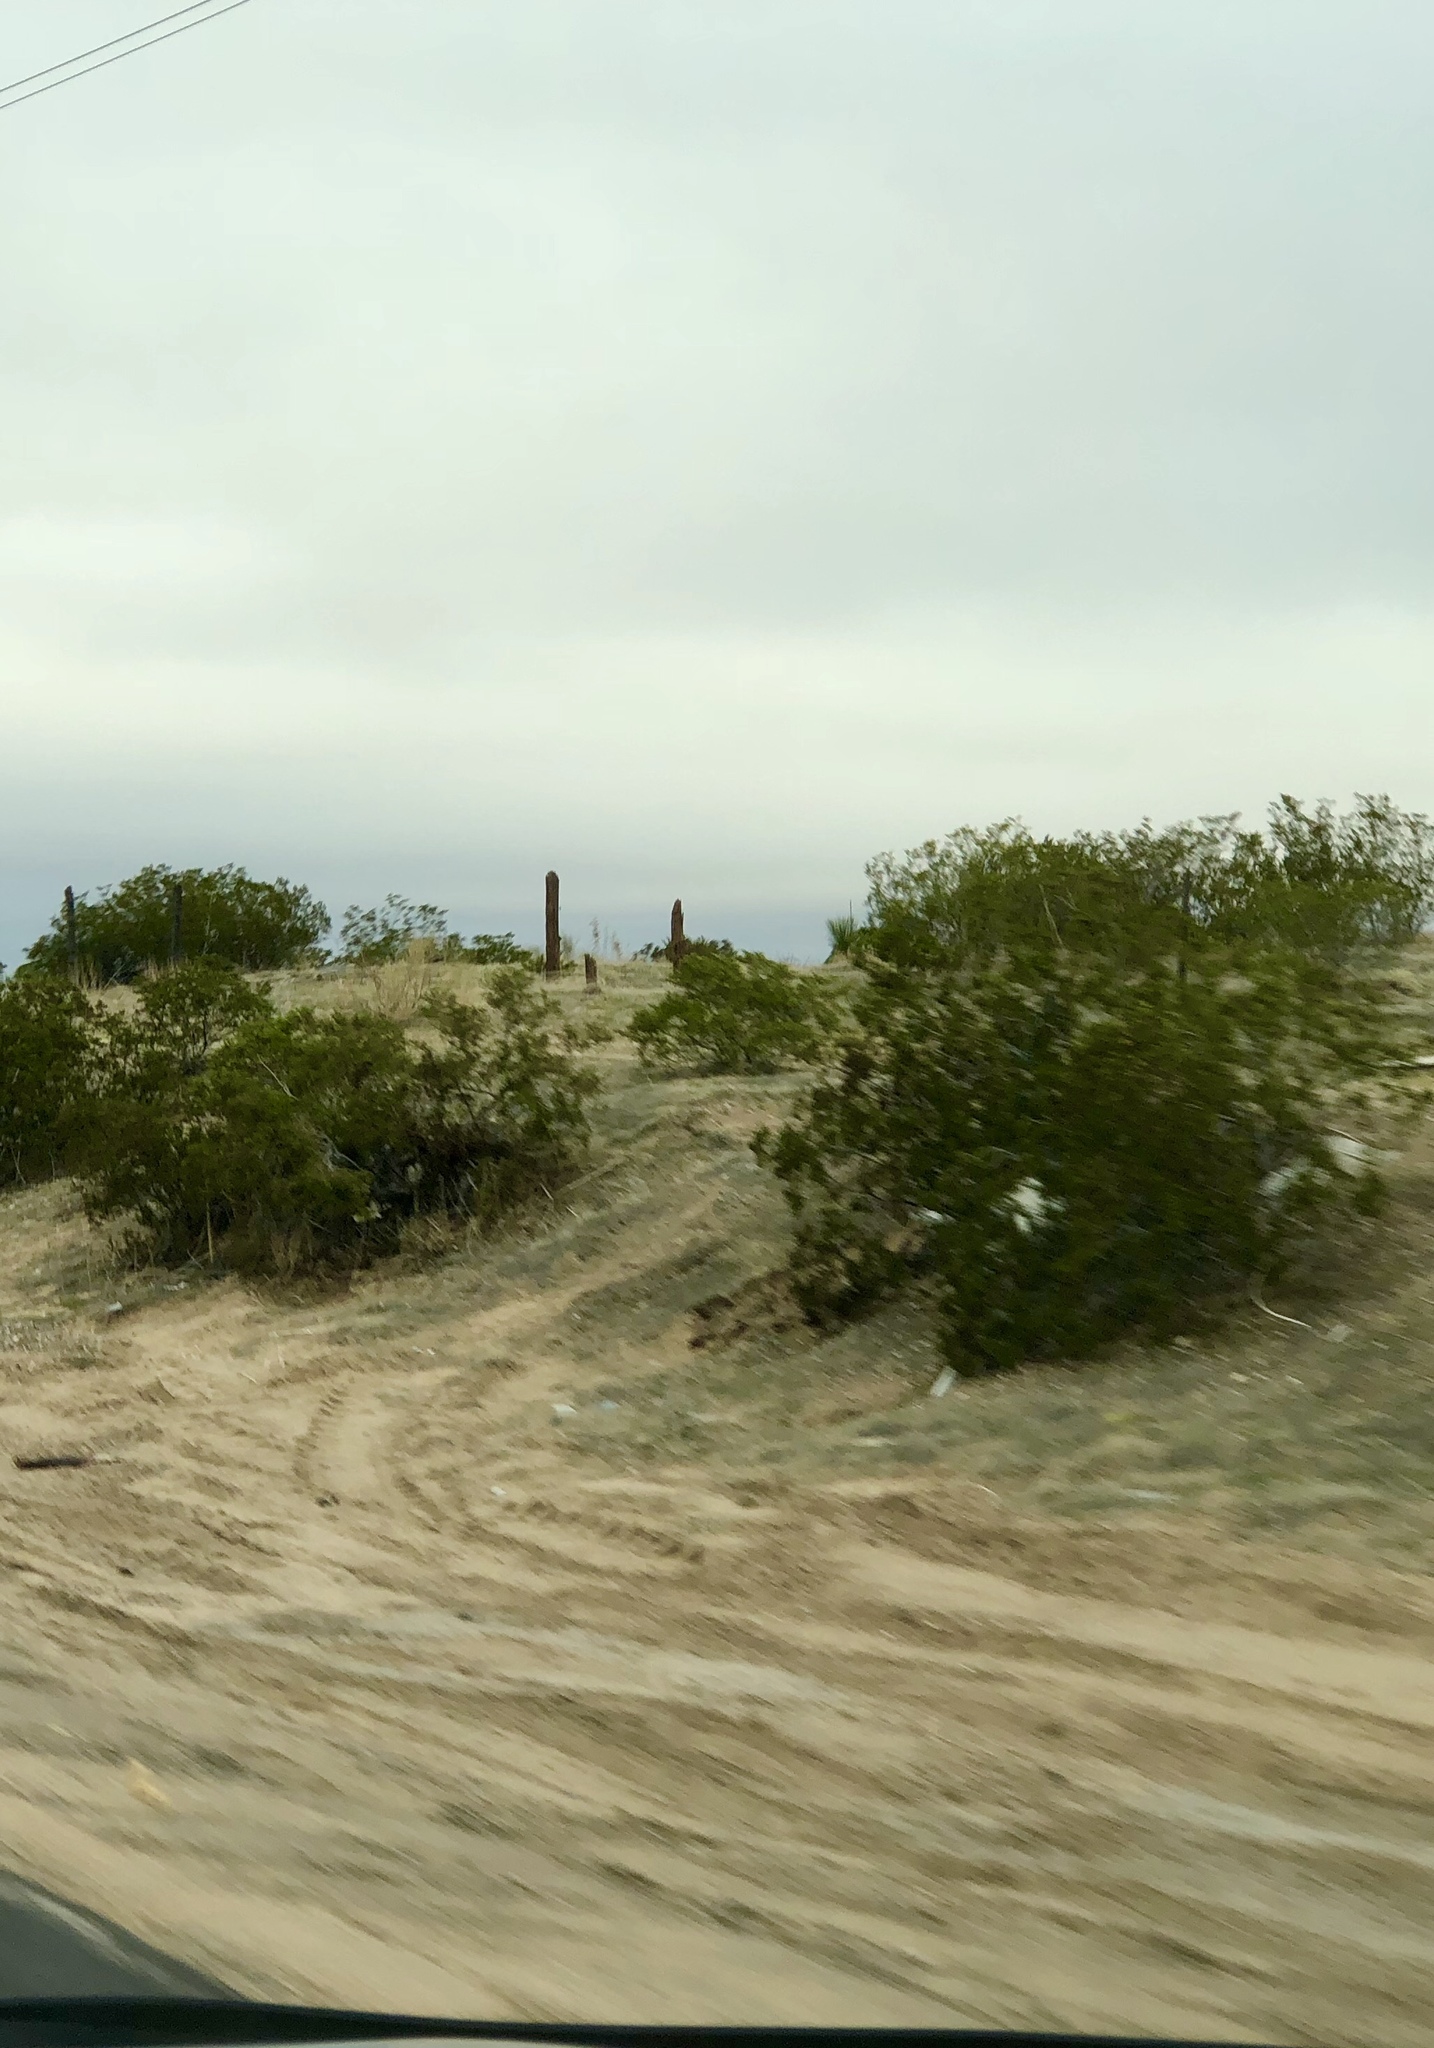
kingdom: Plantae
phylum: Tracheophyta
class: Magnoliopsida
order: Zygophyllales
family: Zygophyllaceae
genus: Larrea
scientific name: Larrea tridentata
